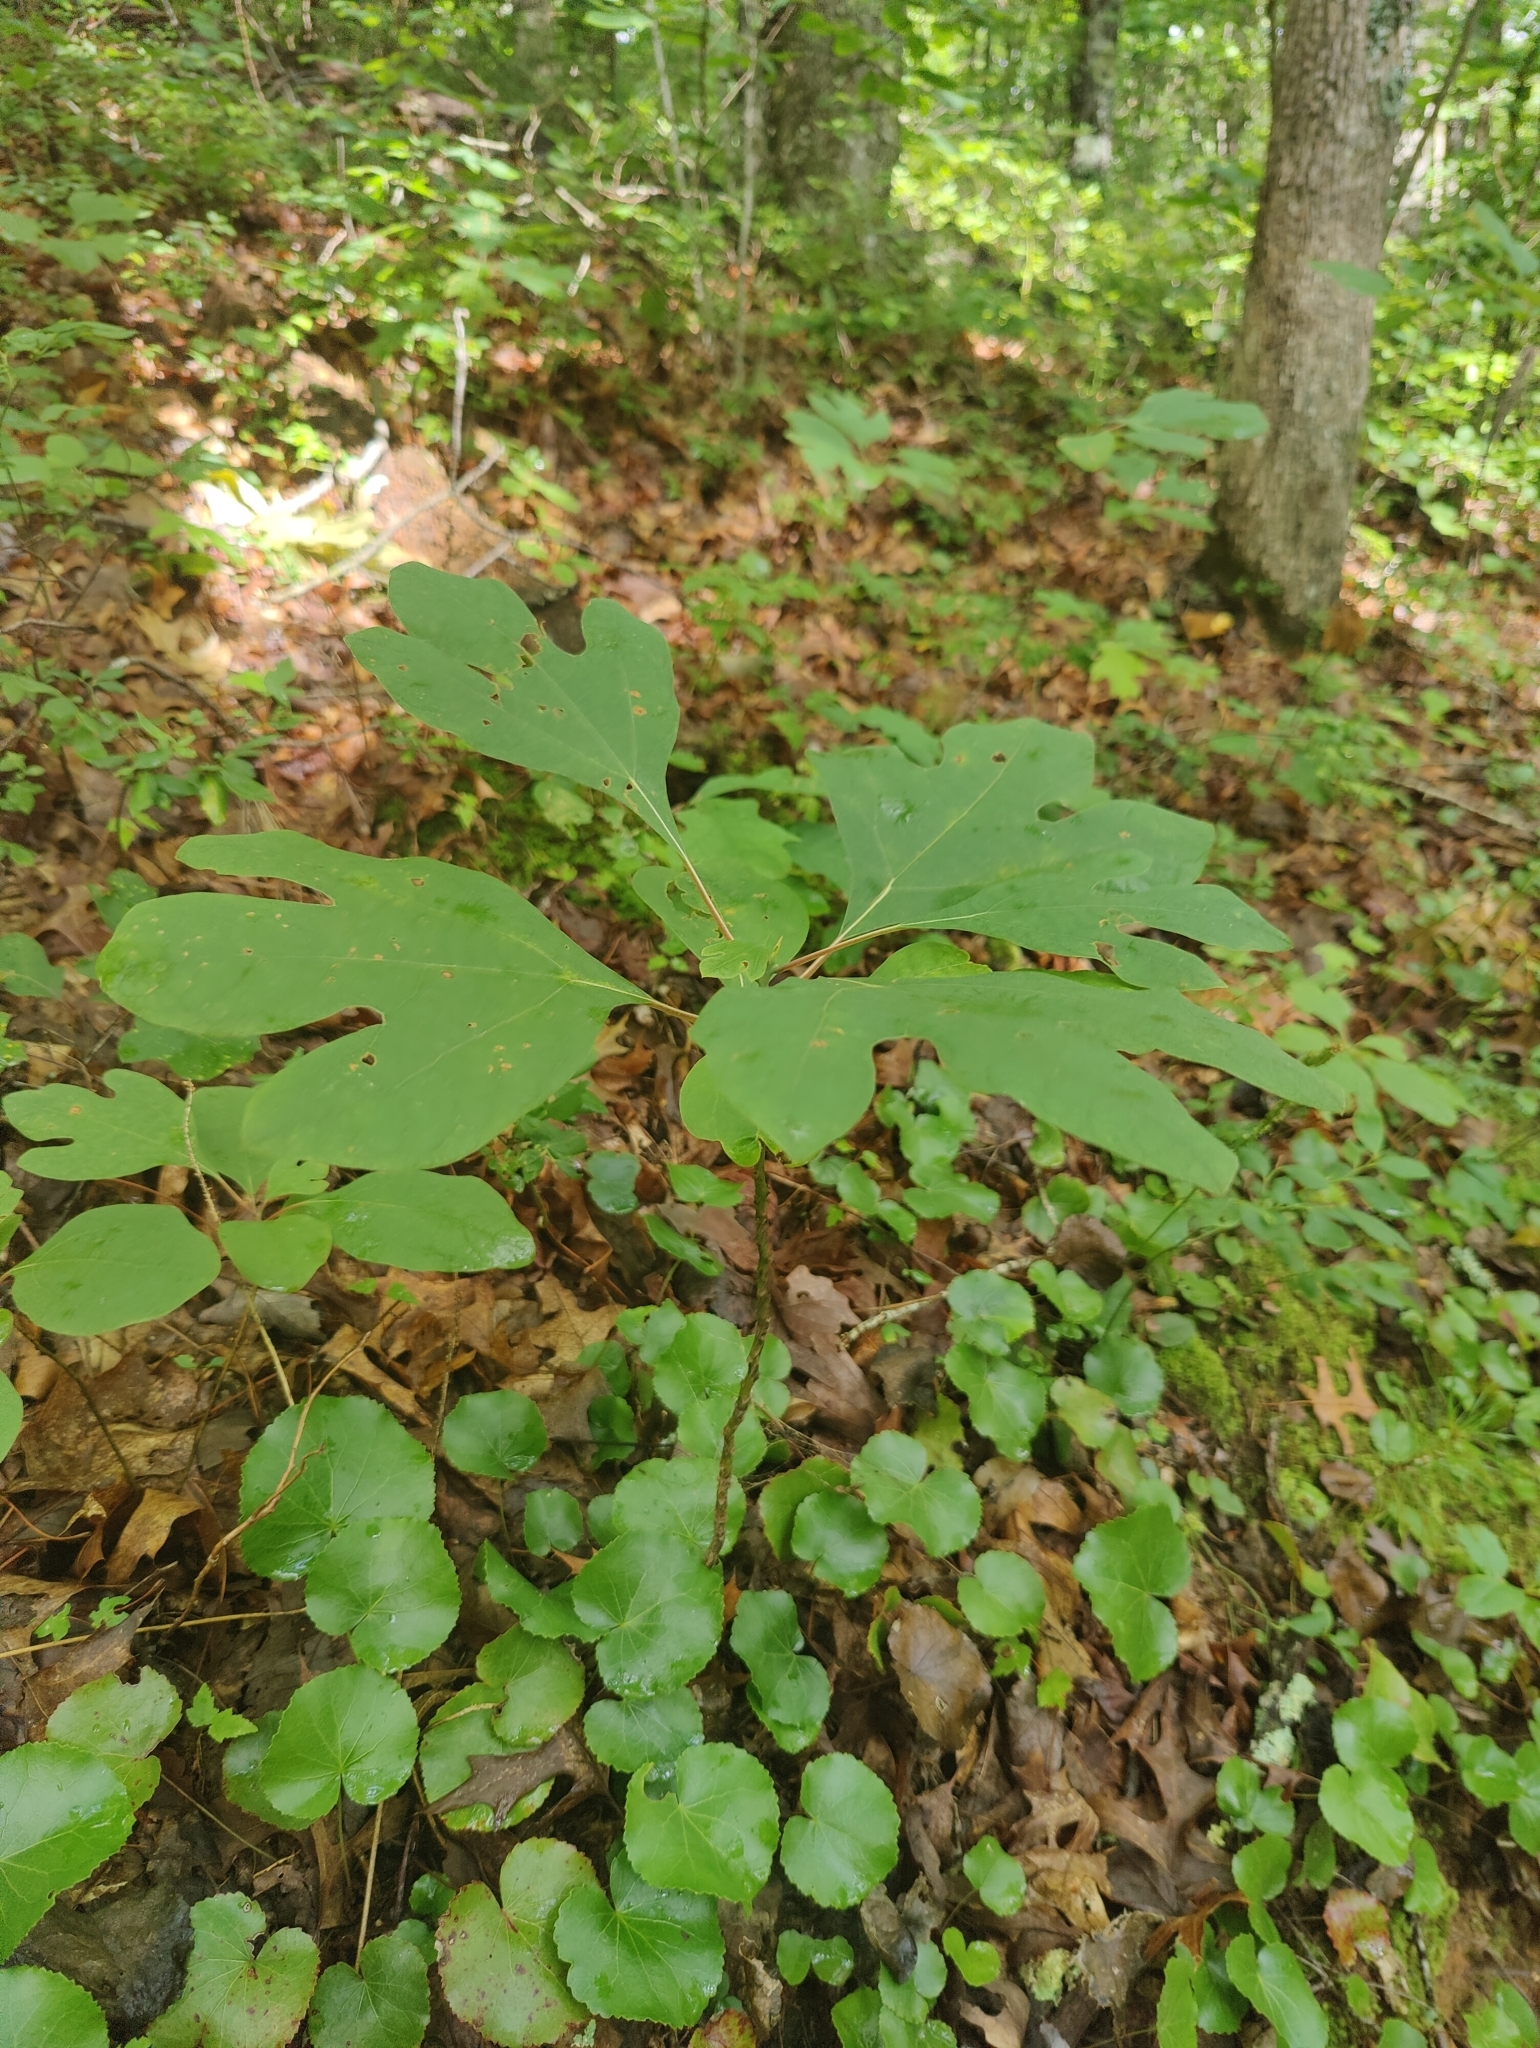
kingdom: Plantae
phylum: Tracheophyta
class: Magnoliopsida
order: Laurales
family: Lauraceae
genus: Sassafras
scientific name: Sassafras albidum
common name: Sassafras
